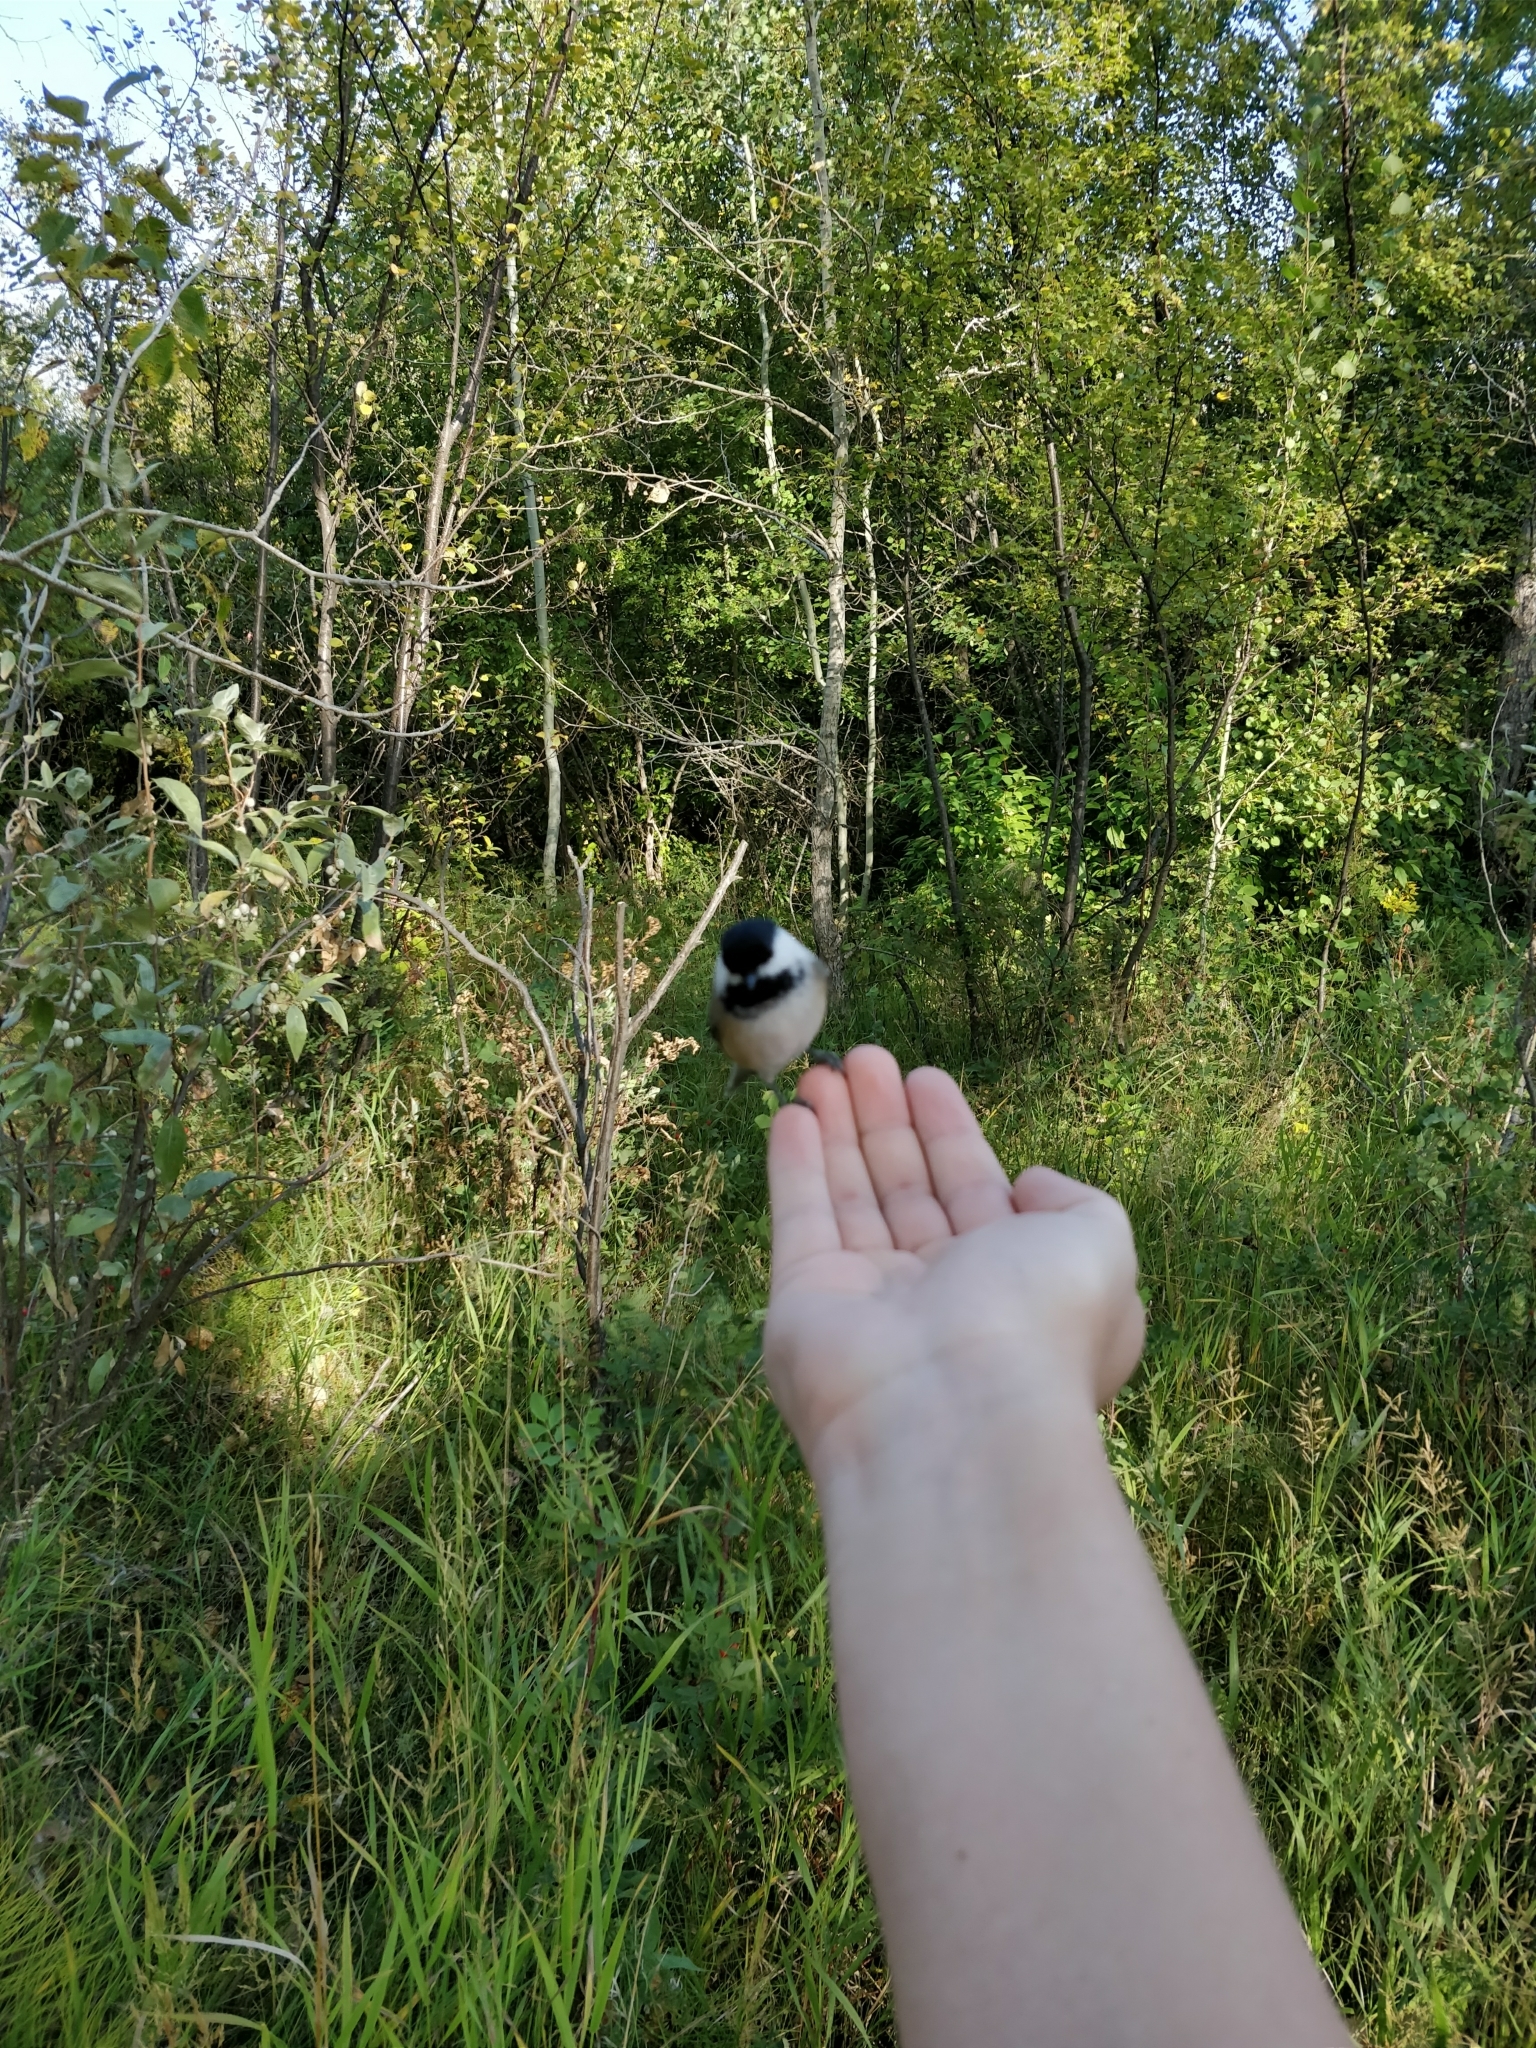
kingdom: Animalia
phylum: Chordata
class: Aves
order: Passeriformes
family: Paridae
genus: Poecile
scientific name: Poecile atricapillus
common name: Black-capped chickadee
